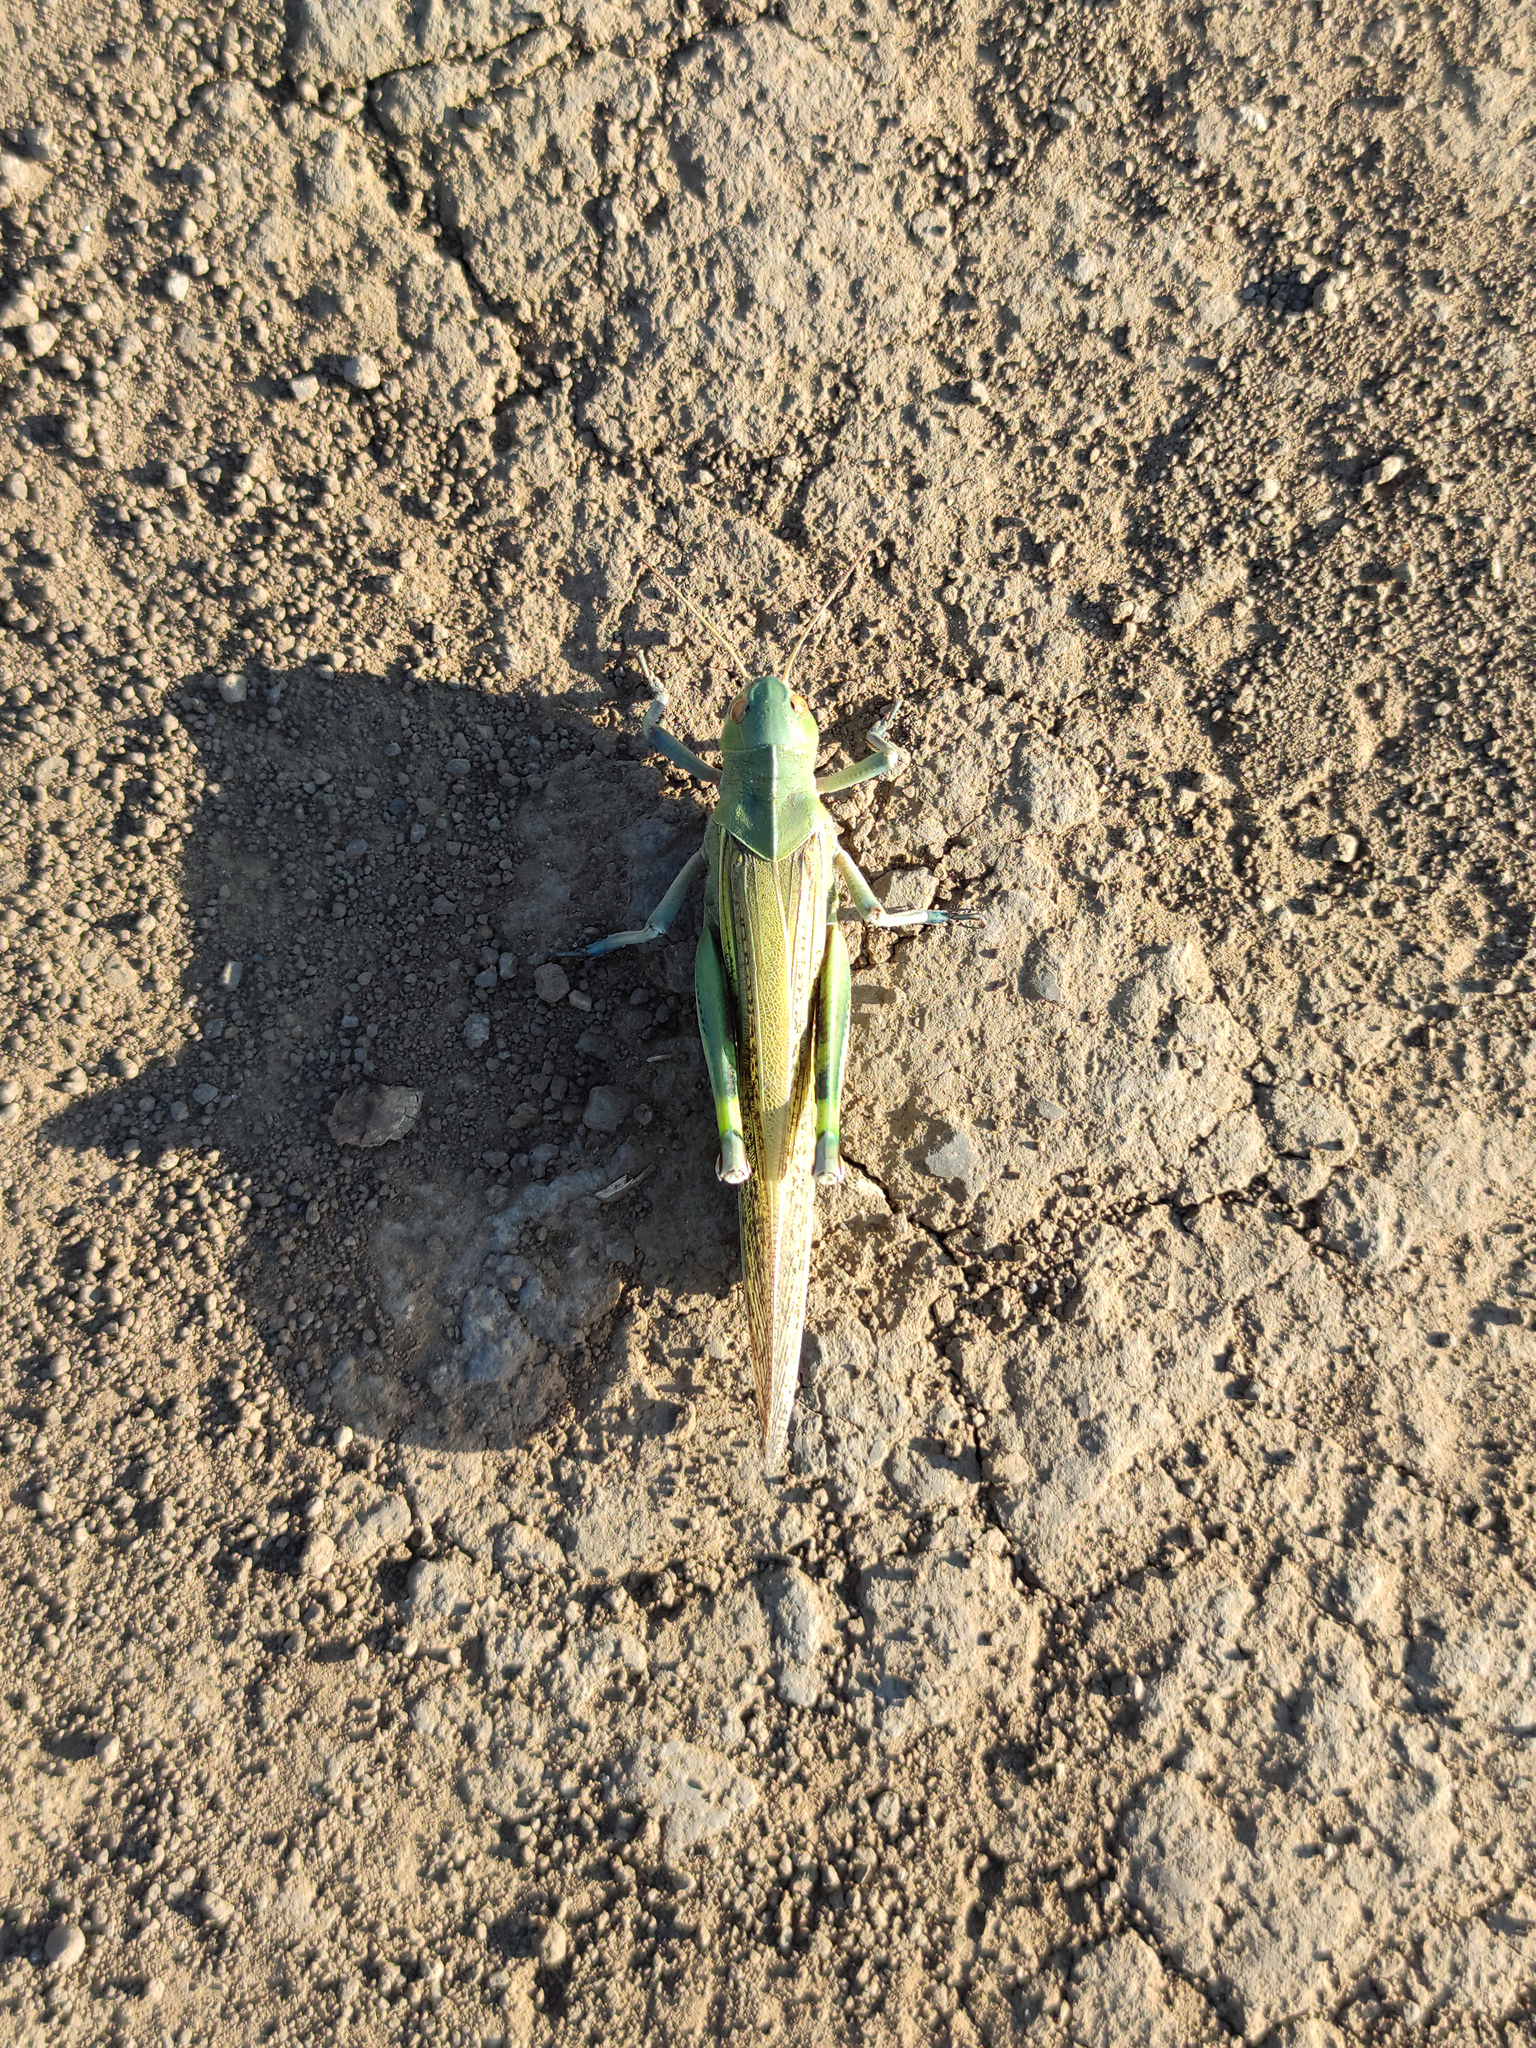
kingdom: Animalia
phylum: Arthropoda
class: Insecta
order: Orthoptera
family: Acrididae
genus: Locusta
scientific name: Locusta migratoria
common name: Migratory locust
